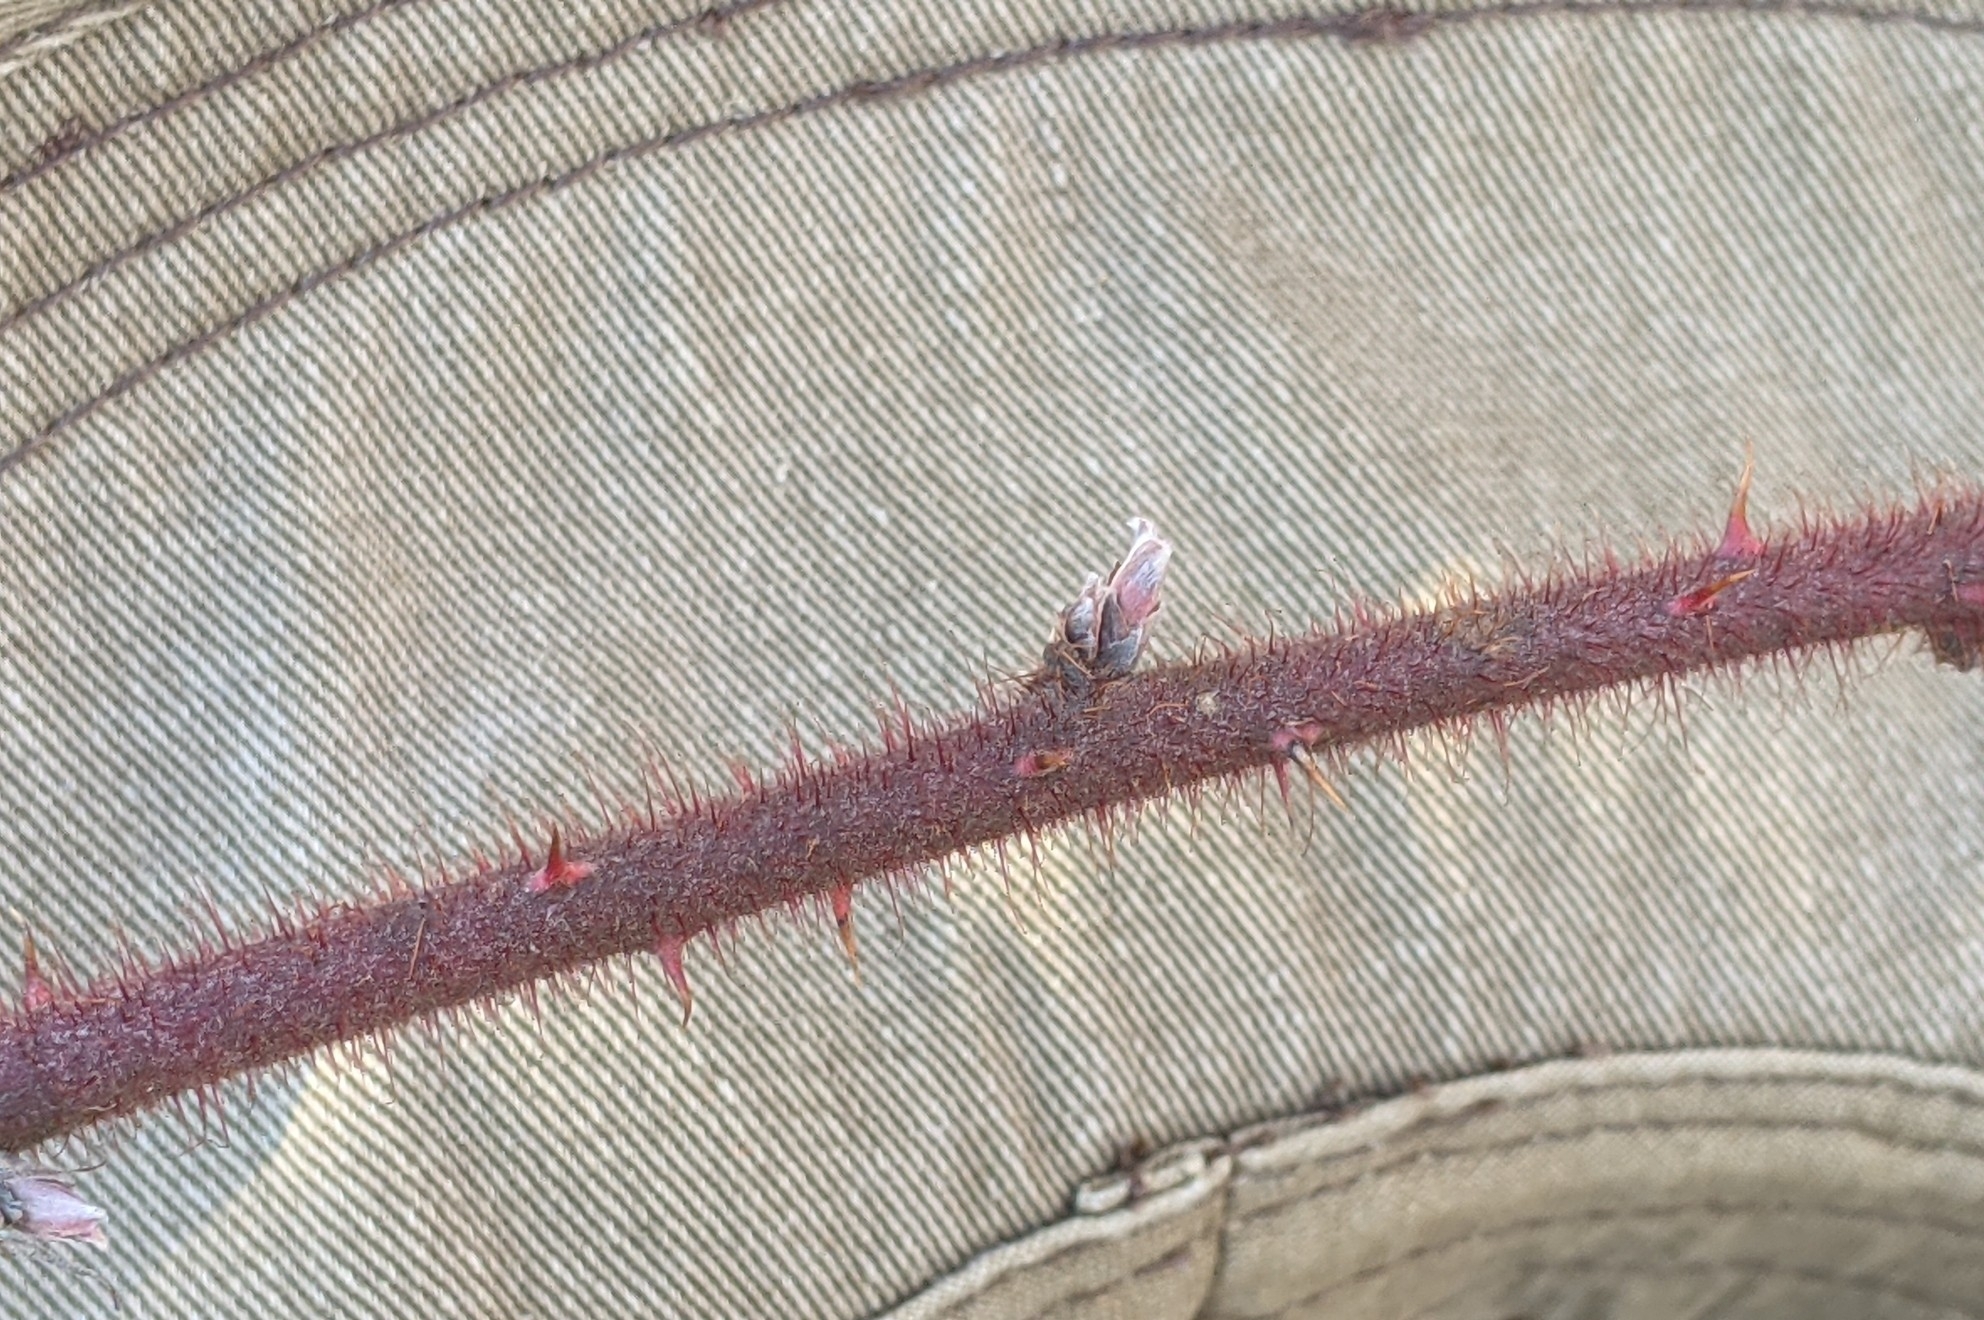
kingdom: Plantae
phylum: Tracheophyta
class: Magnoliopsida
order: Rosales
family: Rosaceae
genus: Rubus
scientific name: Rubus phoenicolasius
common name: Japanese wineberry
